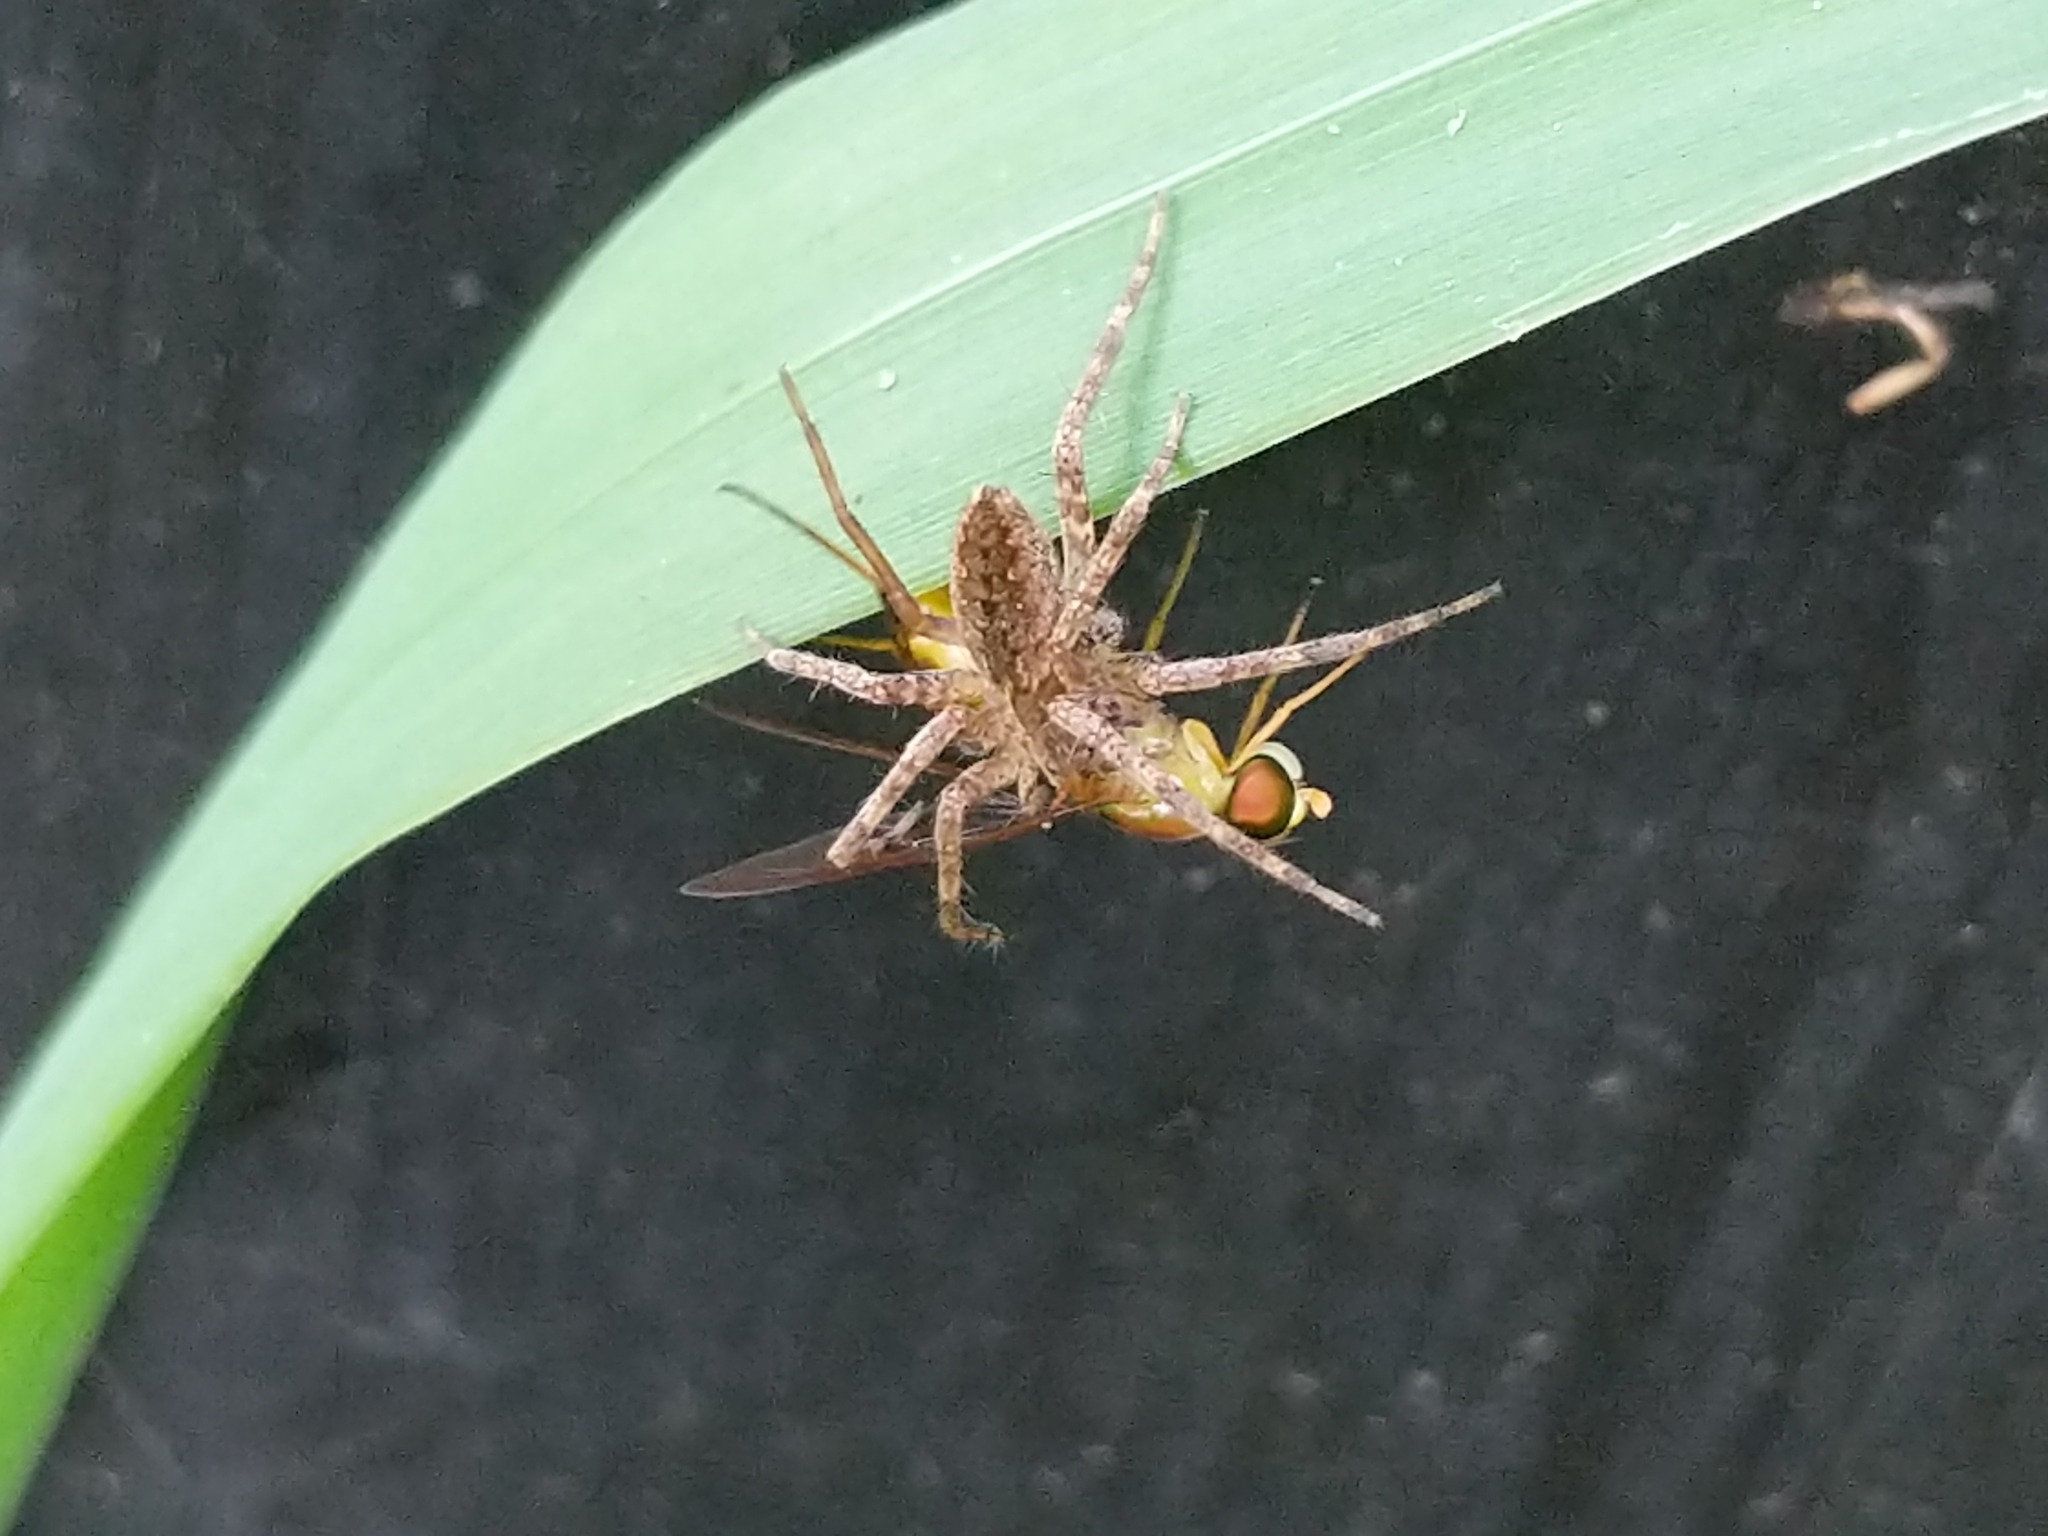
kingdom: Animalia
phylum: Arthropoda
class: Insecta
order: Diptera
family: Stratiomyidae
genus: Ptecticus
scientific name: Ptecticus trivittatus
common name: Compost fly
